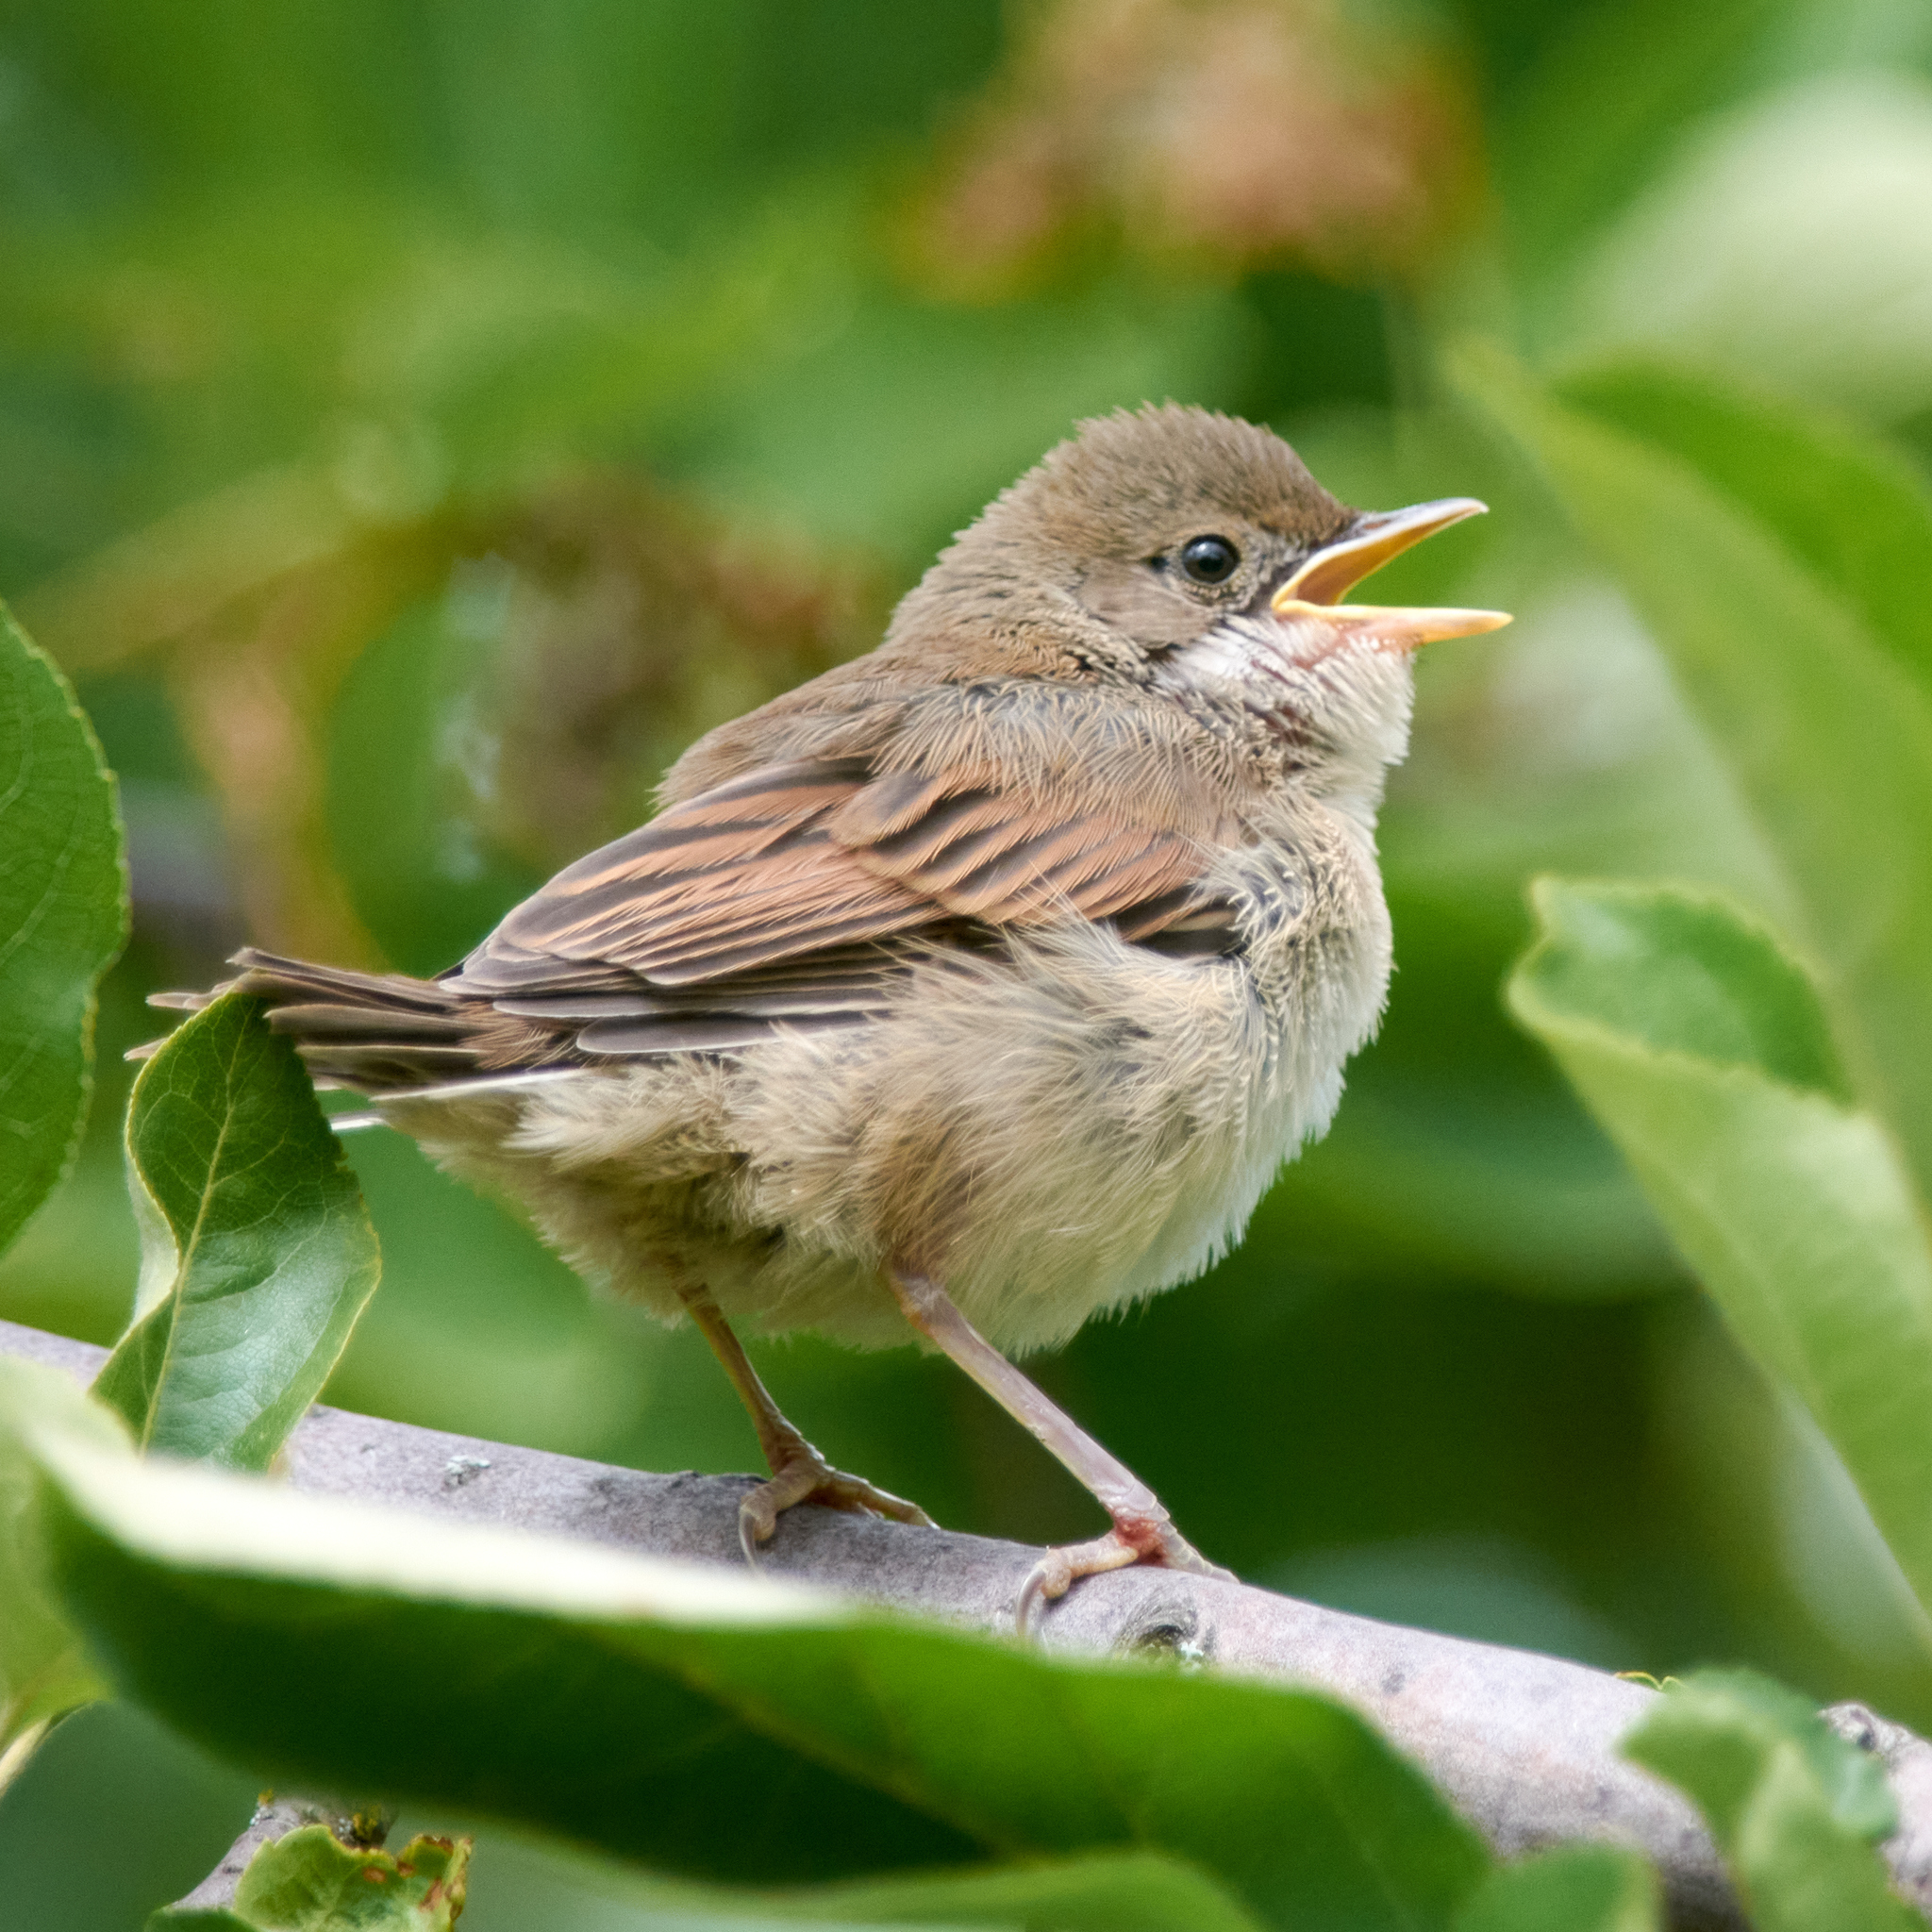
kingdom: Animalia
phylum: Chordata
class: Aves
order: Passeriformes
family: Sylviidae
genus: Sylvia
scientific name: Sylvia communis
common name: Common whitethroat
